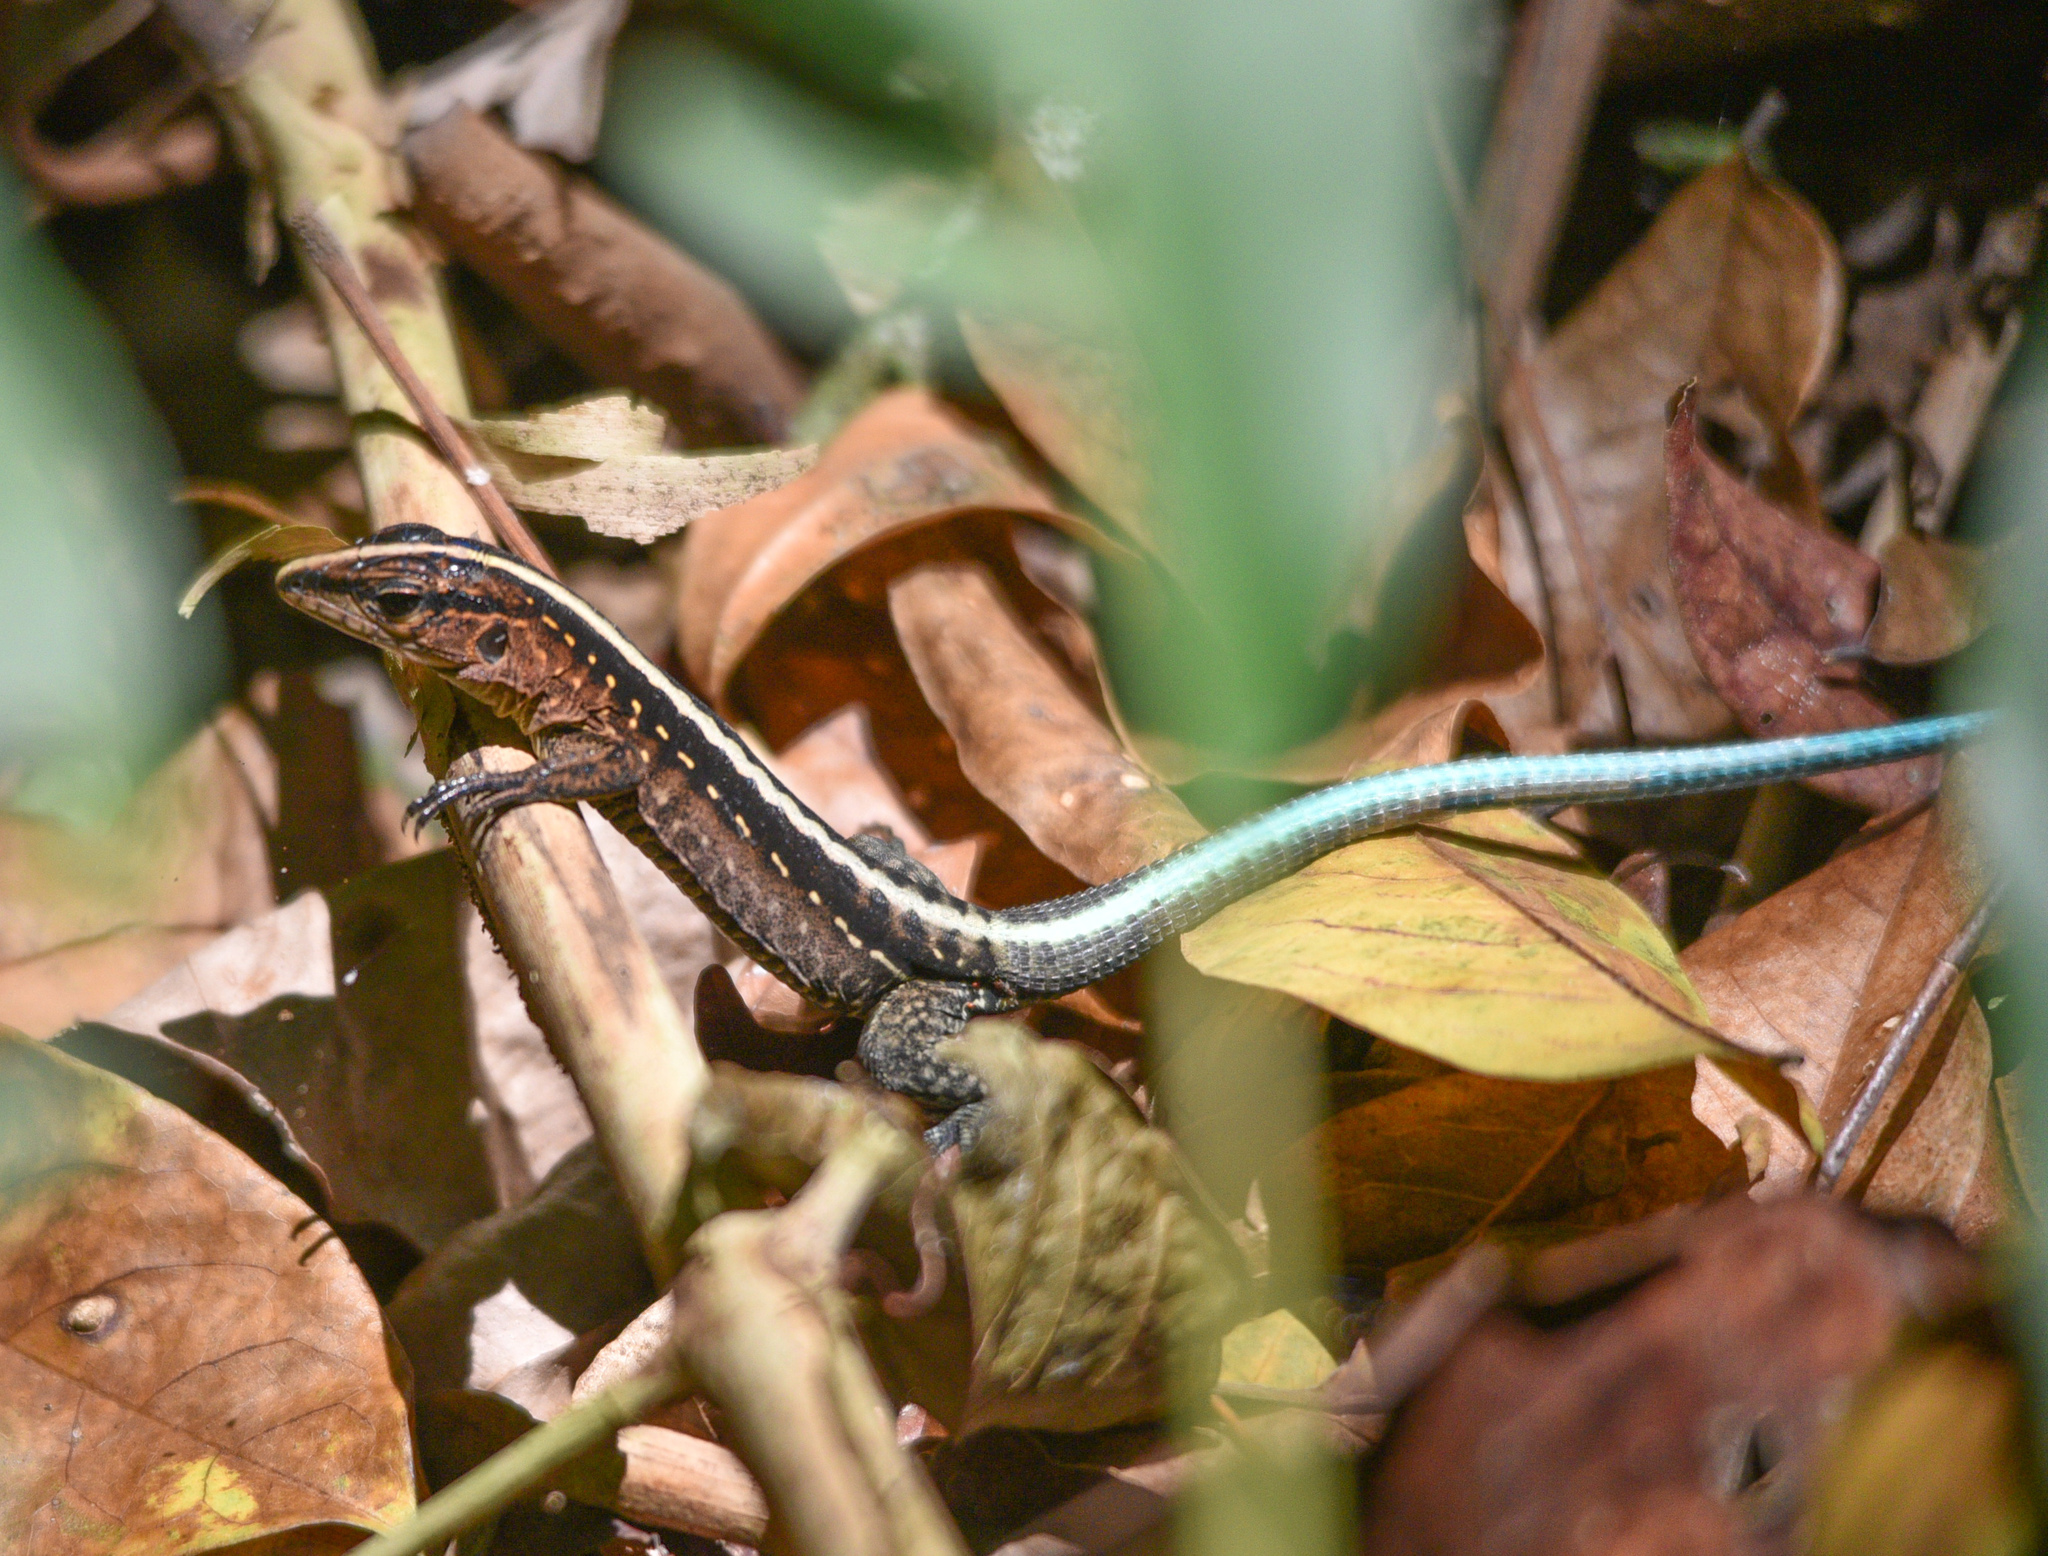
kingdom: Animalia
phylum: Chordata
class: Squamata
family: Teiidae
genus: Holcosus
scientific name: Holcosus festivus
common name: Middle american ameiva
